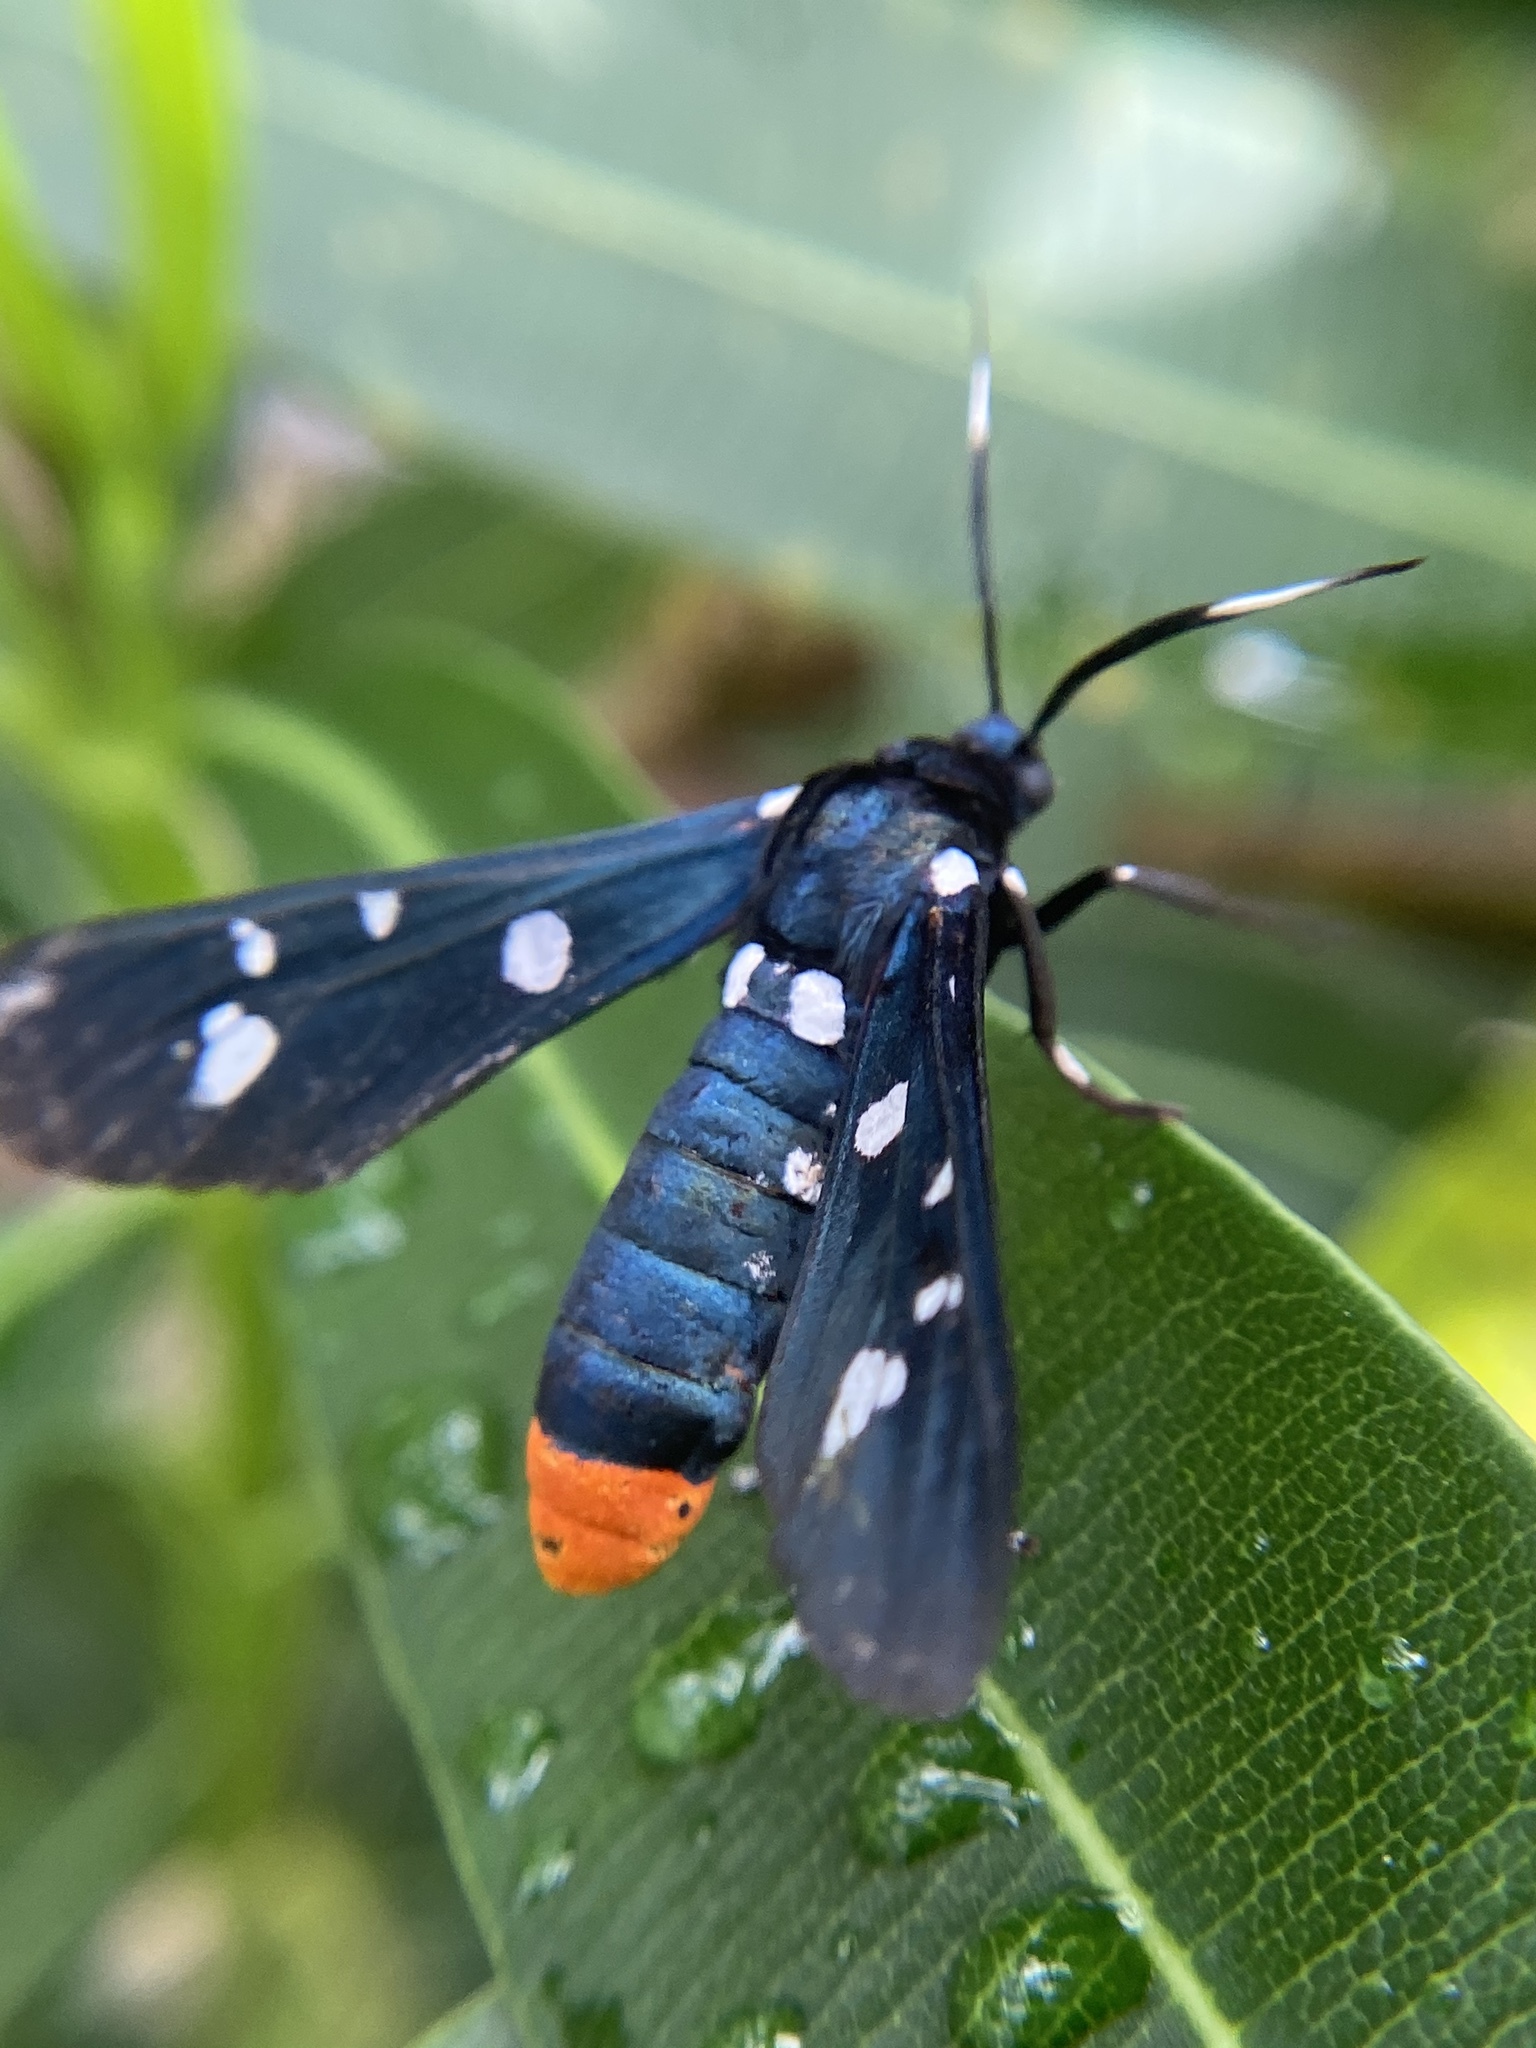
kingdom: Animalia
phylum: Arthropoda
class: Insecta
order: Lepidoptera
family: Erebidae
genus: Syntomeida
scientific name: Syntomeida epilais
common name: Polka-dot wasp moth
